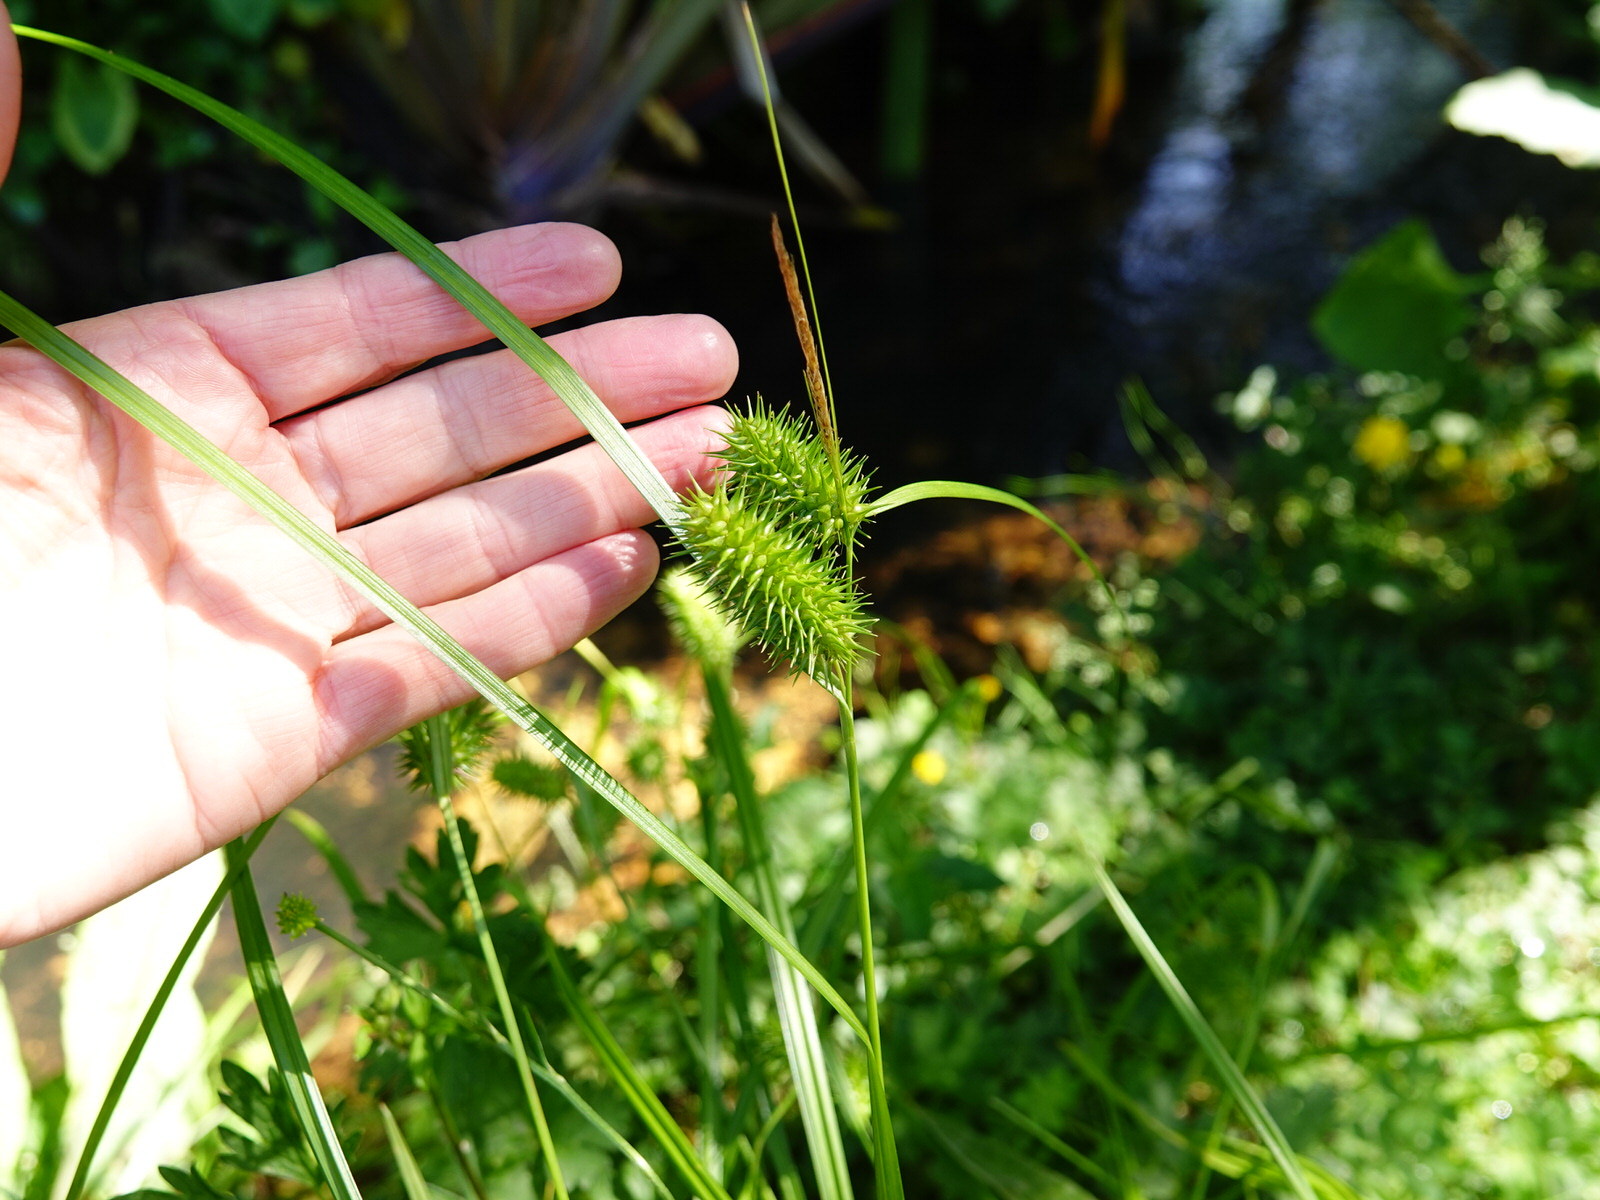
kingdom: Plantae
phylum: Tracheophyta
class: Liliopsida
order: Poales
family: Cyperaceae
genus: Carex
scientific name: Carex lurida
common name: Sallow sedge
